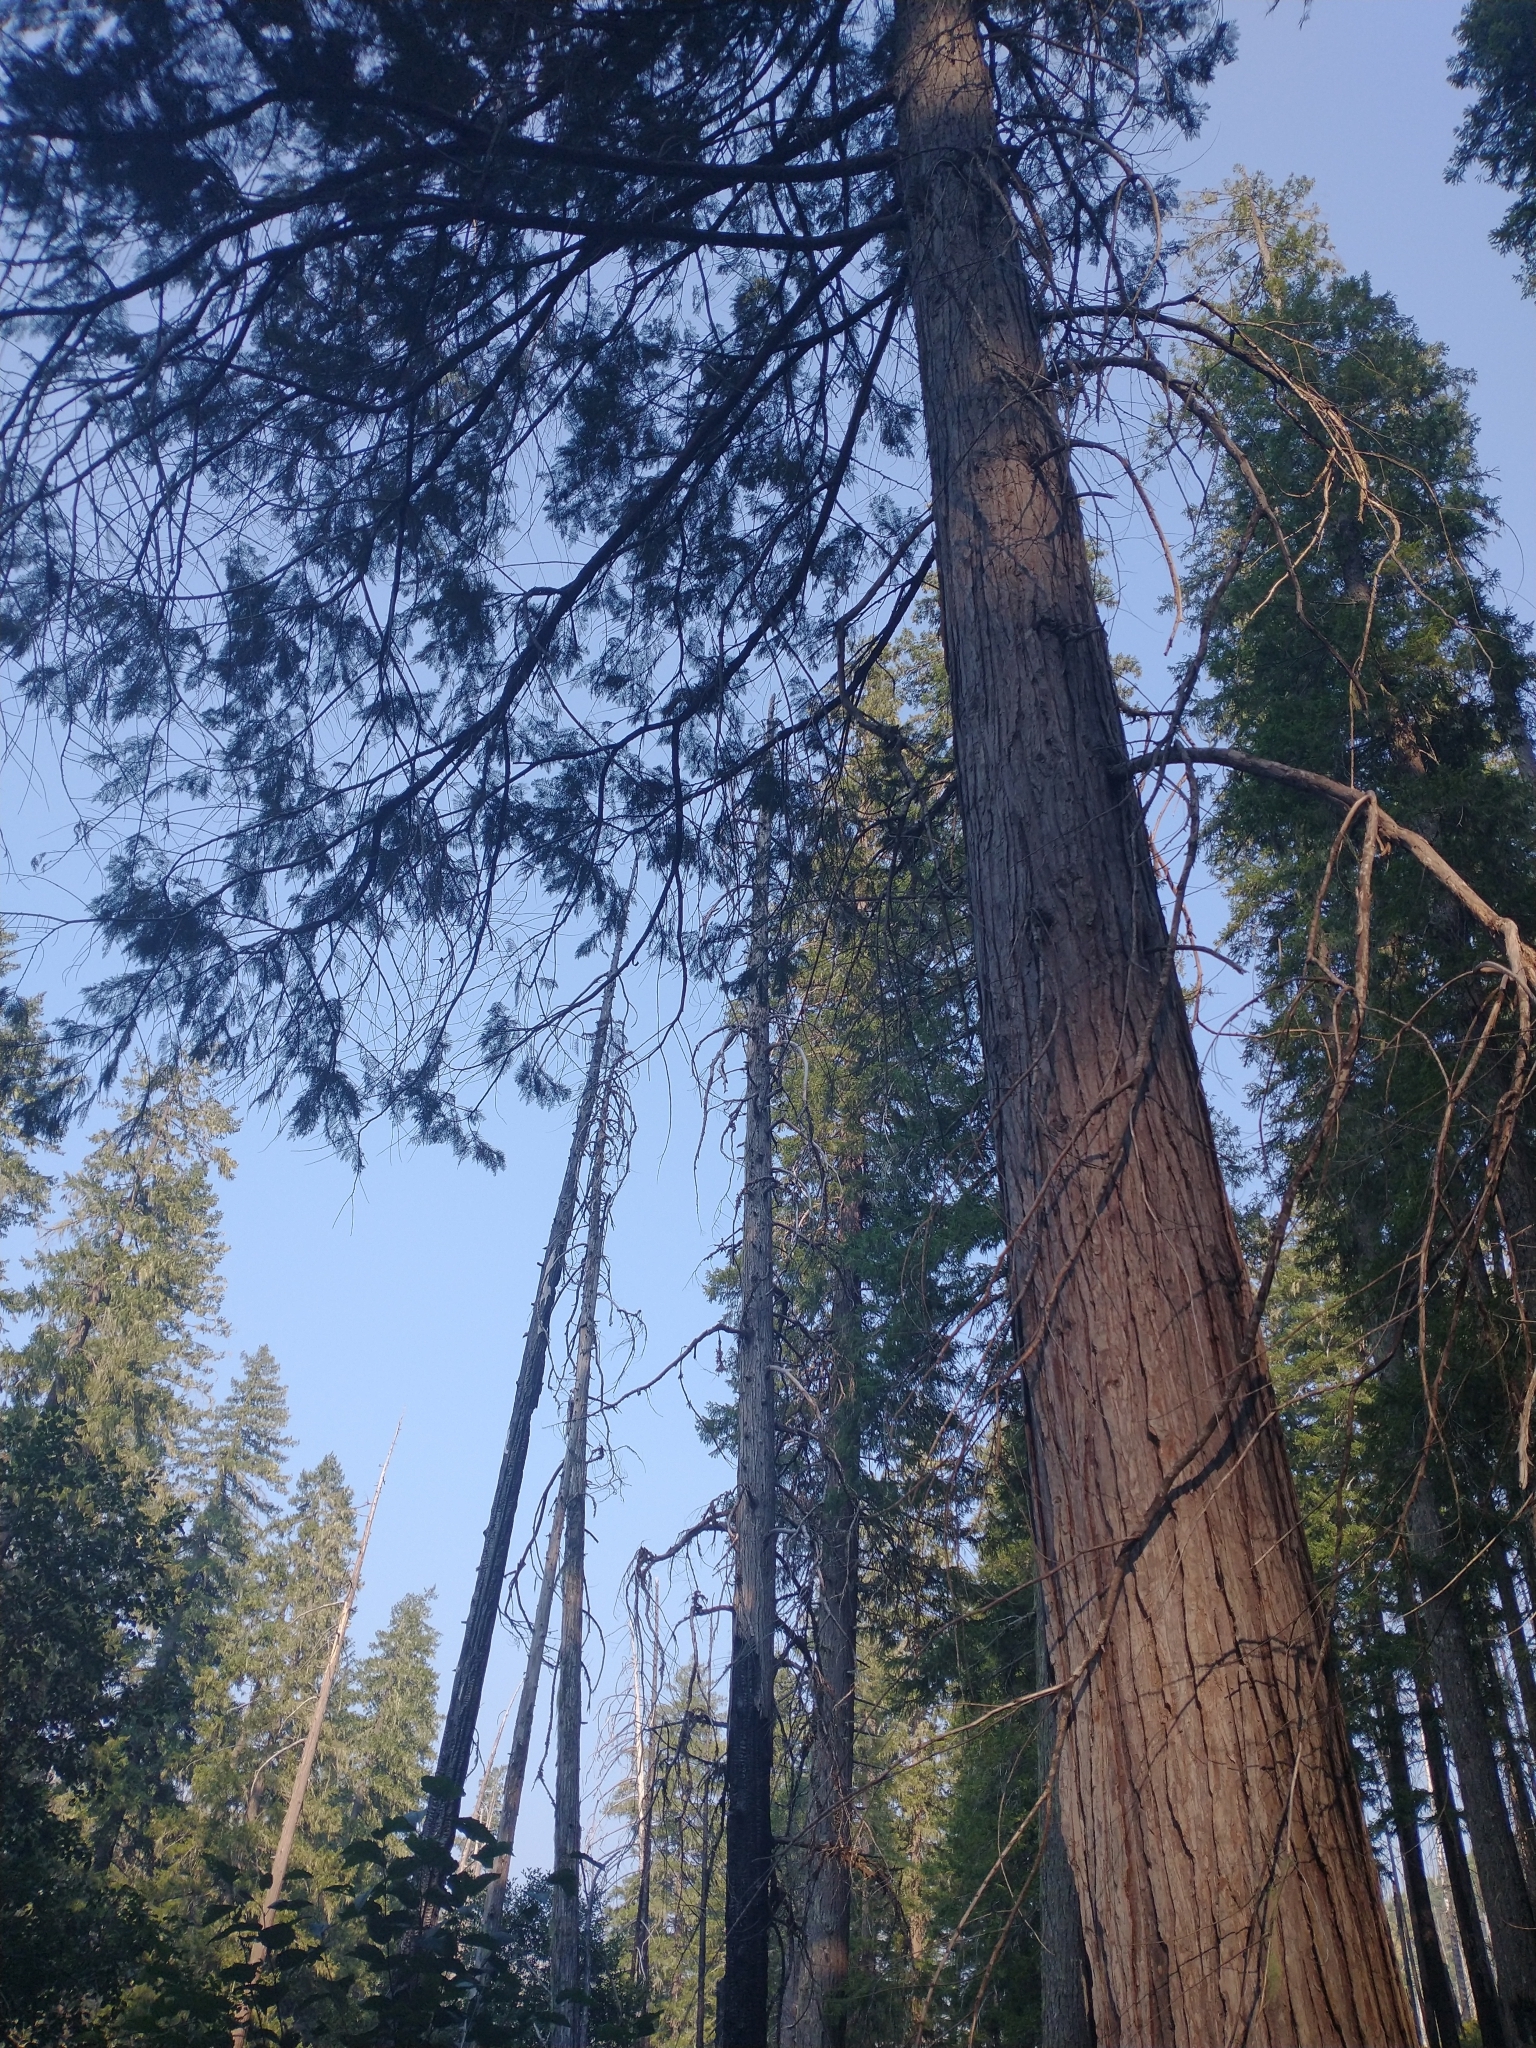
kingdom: Plantae
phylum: Tracheophyta
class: Pinopsida
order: Pinales
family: Cupressaceae
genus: Chamaecyparis
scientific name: Chamaecyparis lawsoniana
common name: Lawson's cypress
